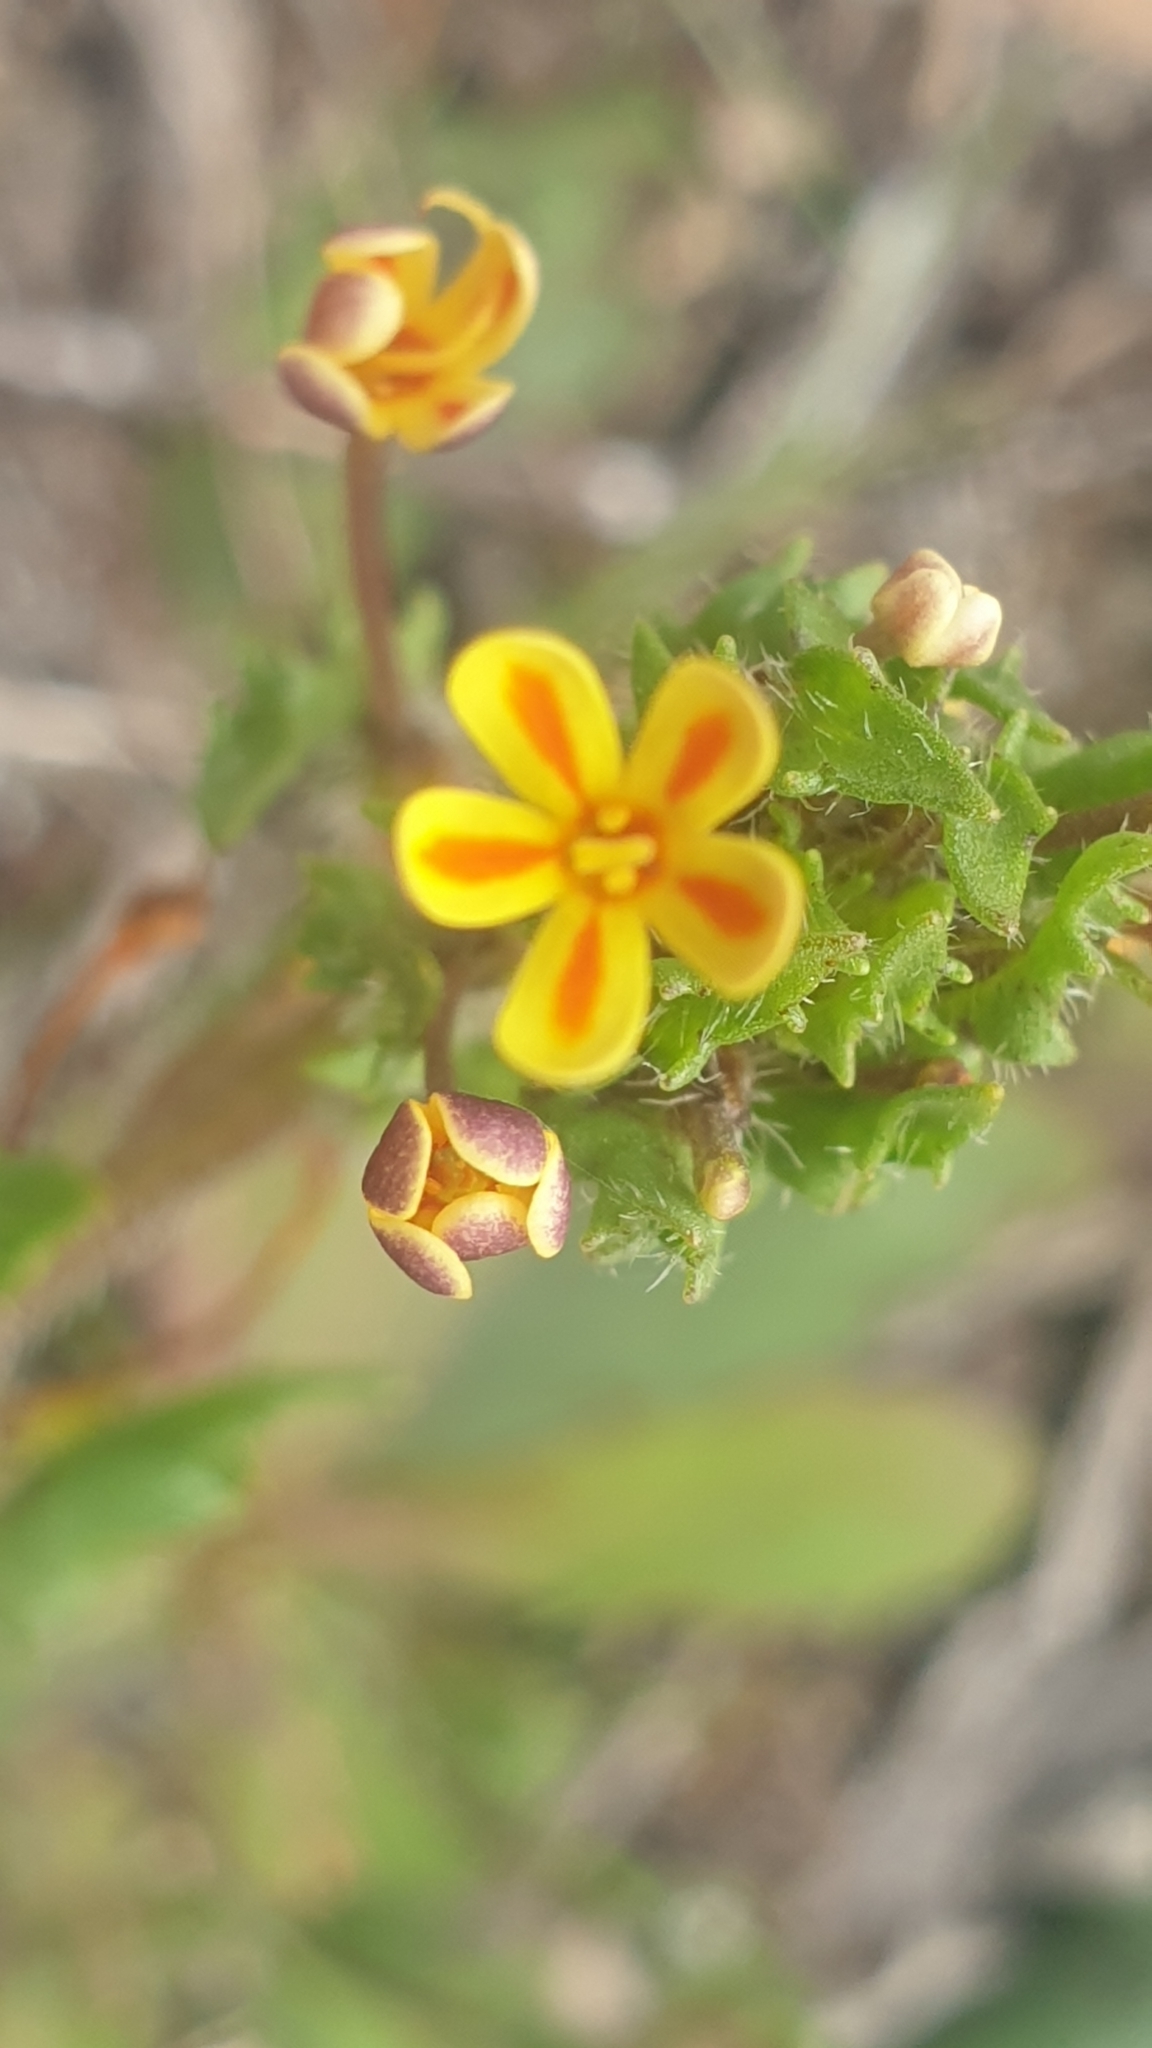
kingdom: Plantae
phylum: Tracheophyta
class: Magnoliopsida
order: Lamiales
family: Scrophulariaceae
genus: Zaluzianskya
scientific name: Zaluzianskya divaricata
